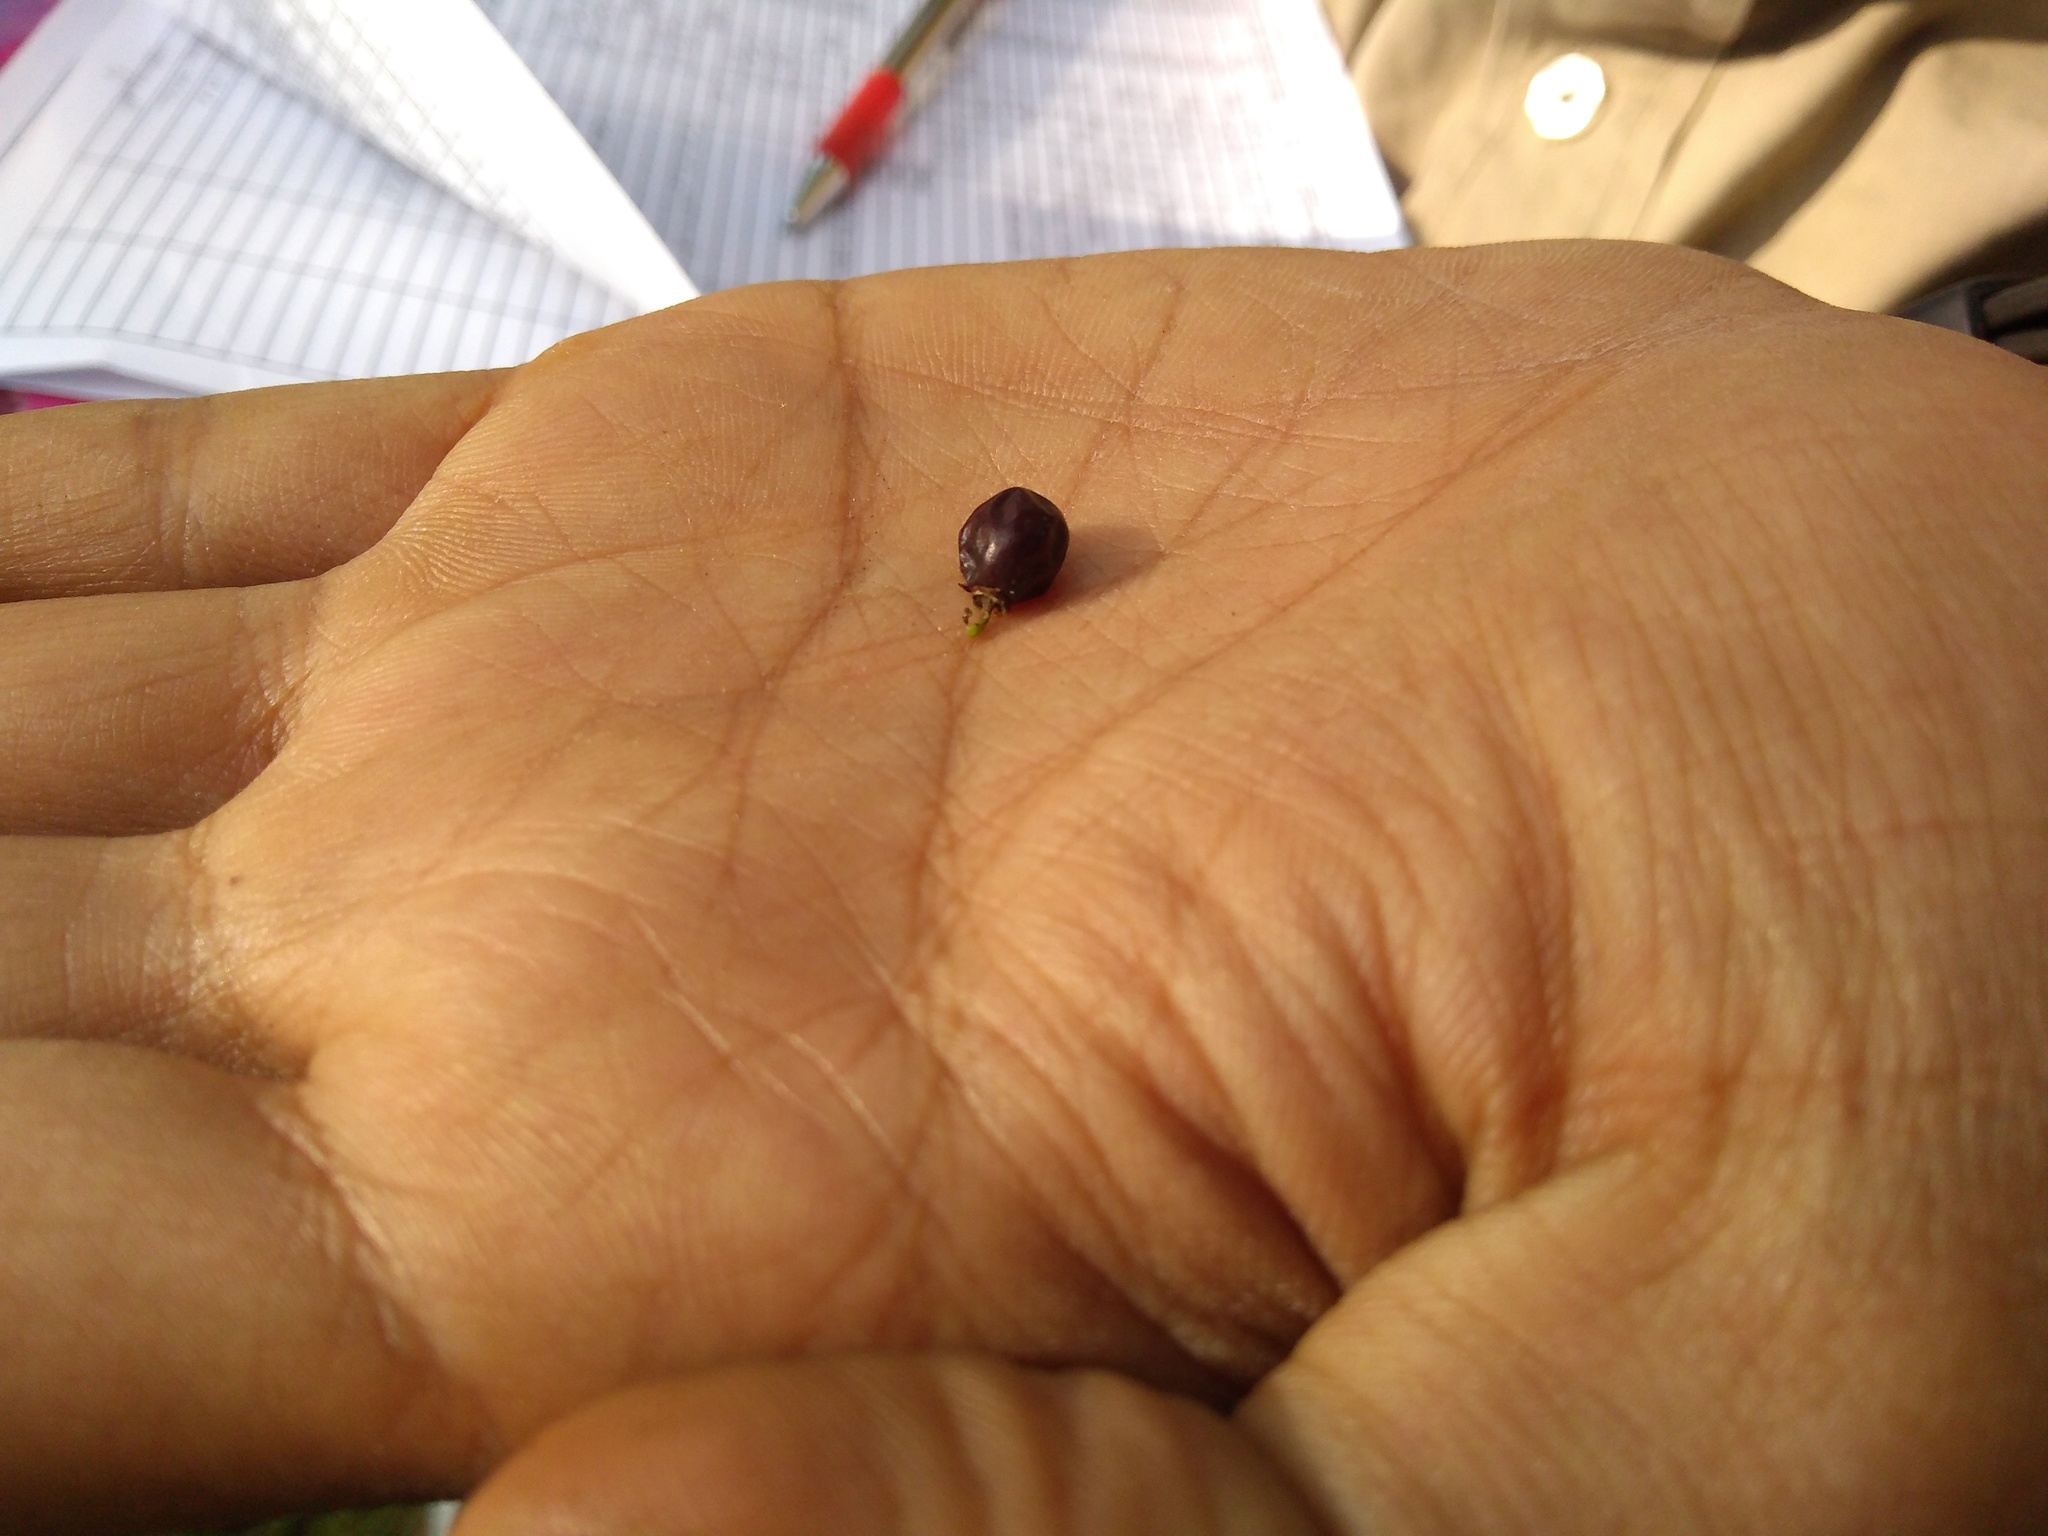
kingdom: Plantae
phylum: Tracheophyta
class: Magnoliopsida
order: Rosales
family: Rhamnaceae
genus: Ziziphus
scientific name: Ziziphus oenopolia
